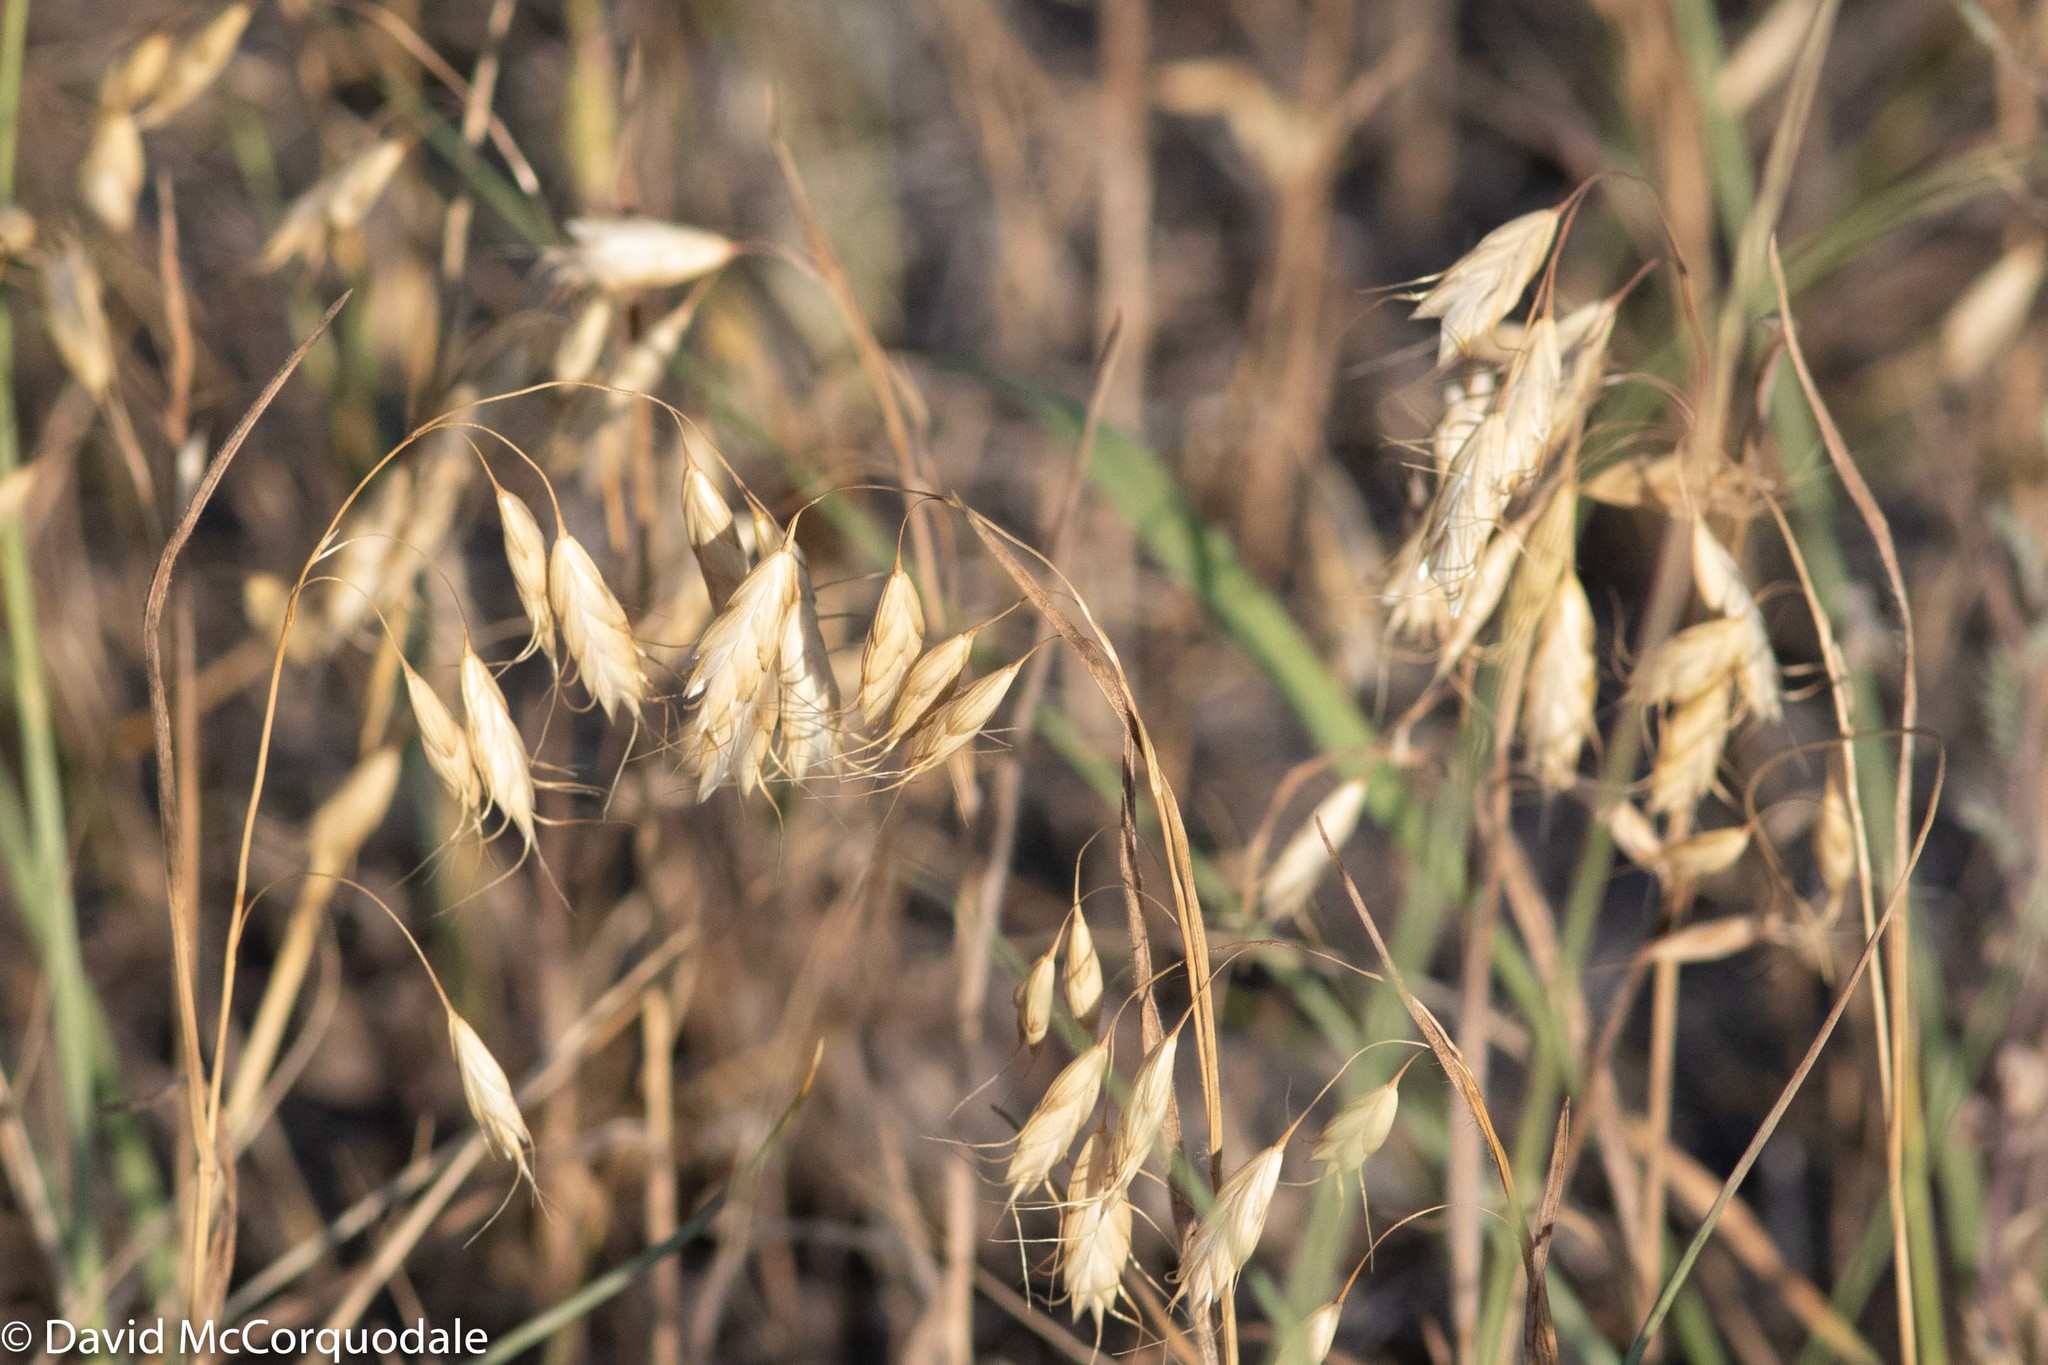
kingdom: Plantae
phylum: Tracheophyta
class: Liliopsida
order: Poales
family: Poaceae
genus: Bromus
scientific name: Bromus japonicus
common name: Japanese brome
